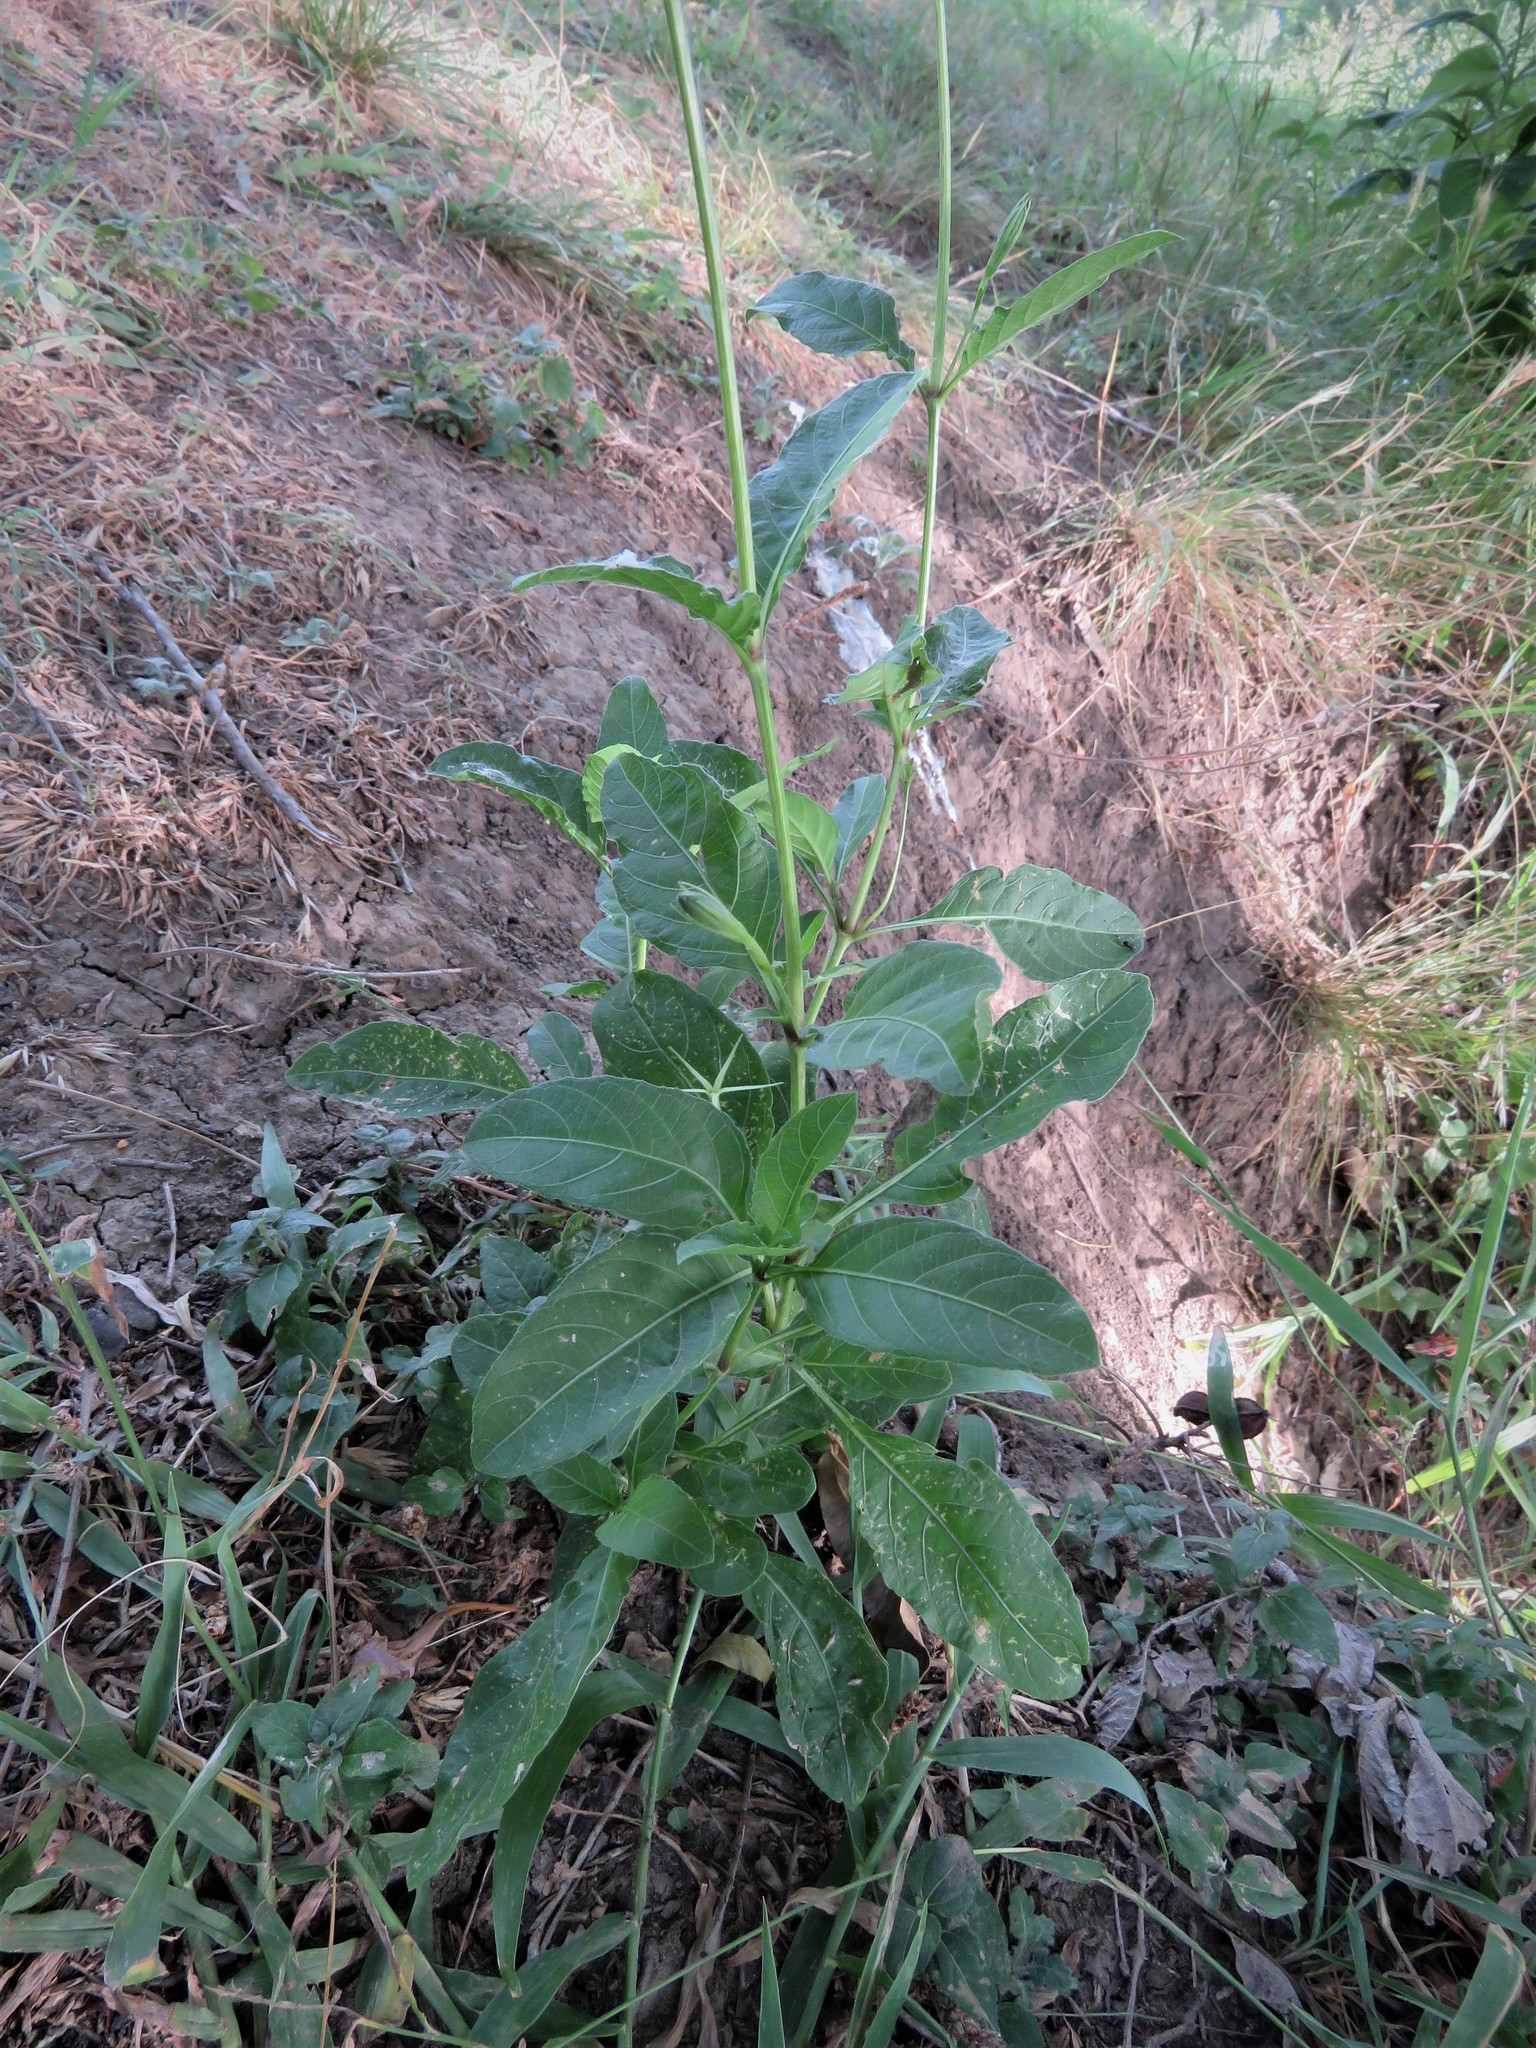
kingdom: Plantae
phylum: Tracheophyta
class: Magnoliopsida
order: Lamiales
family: Acanthaceae
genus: Ruellia
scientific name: Ruellia ciliatiflora
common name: Hairyflower wild petunia
